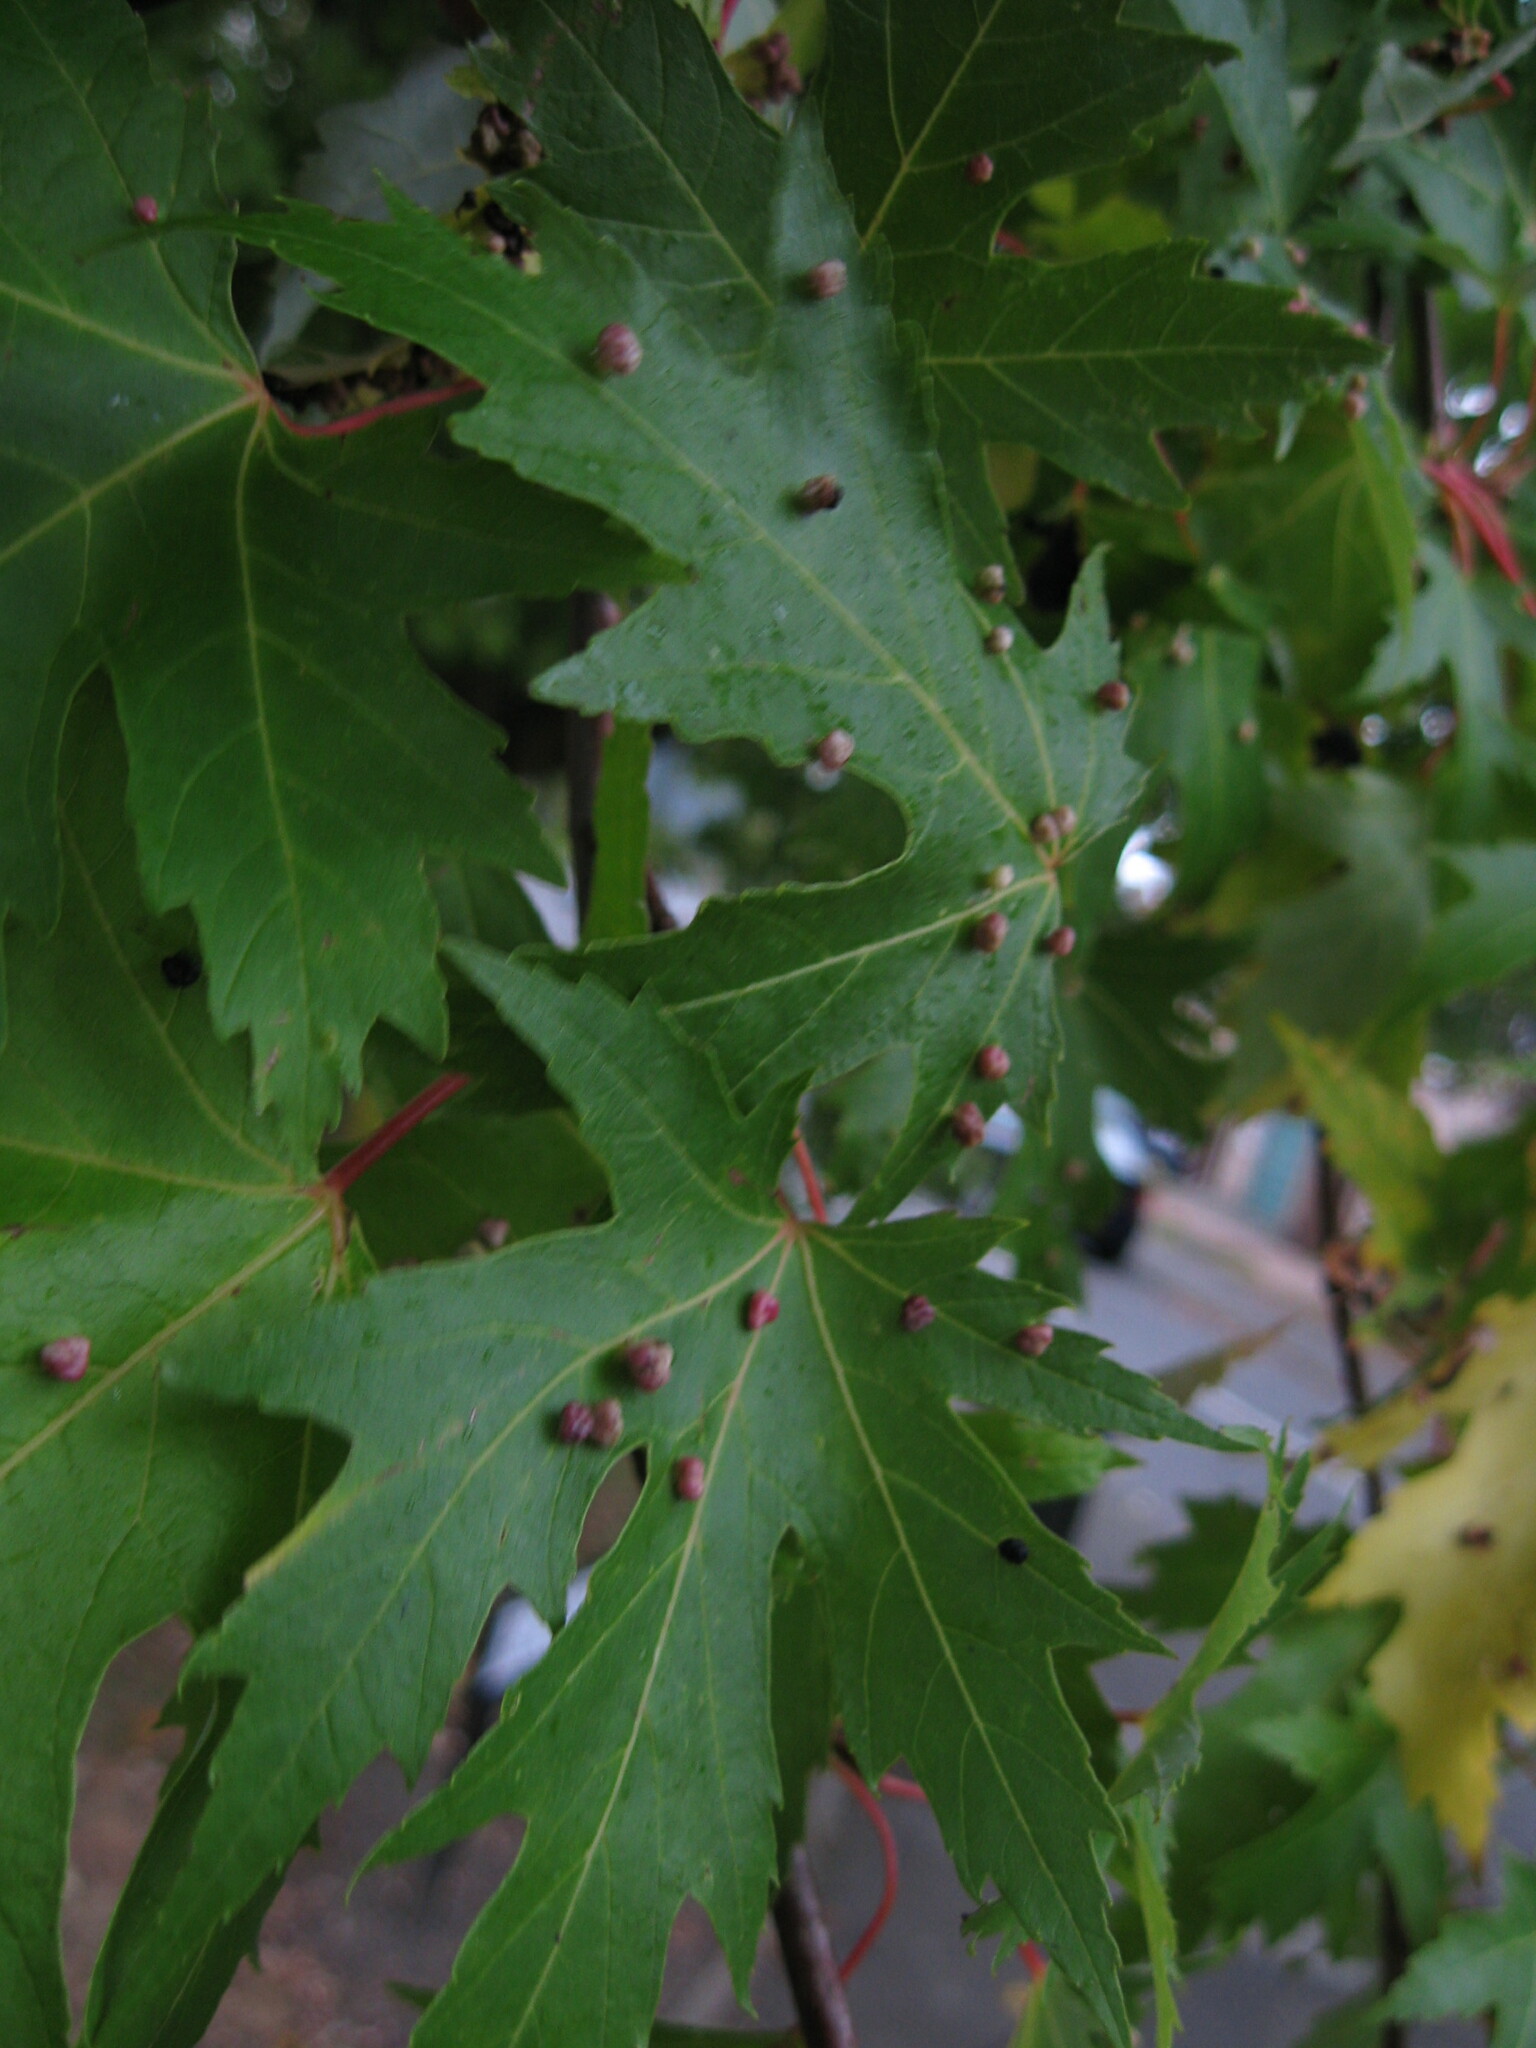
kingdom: Animalia
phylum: Arthropoda
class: Arachnida
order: Trombidiformes
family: Eriophyidae
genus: Vasates
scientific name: Vasates quadripedes
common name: Maple bladder gall mite
